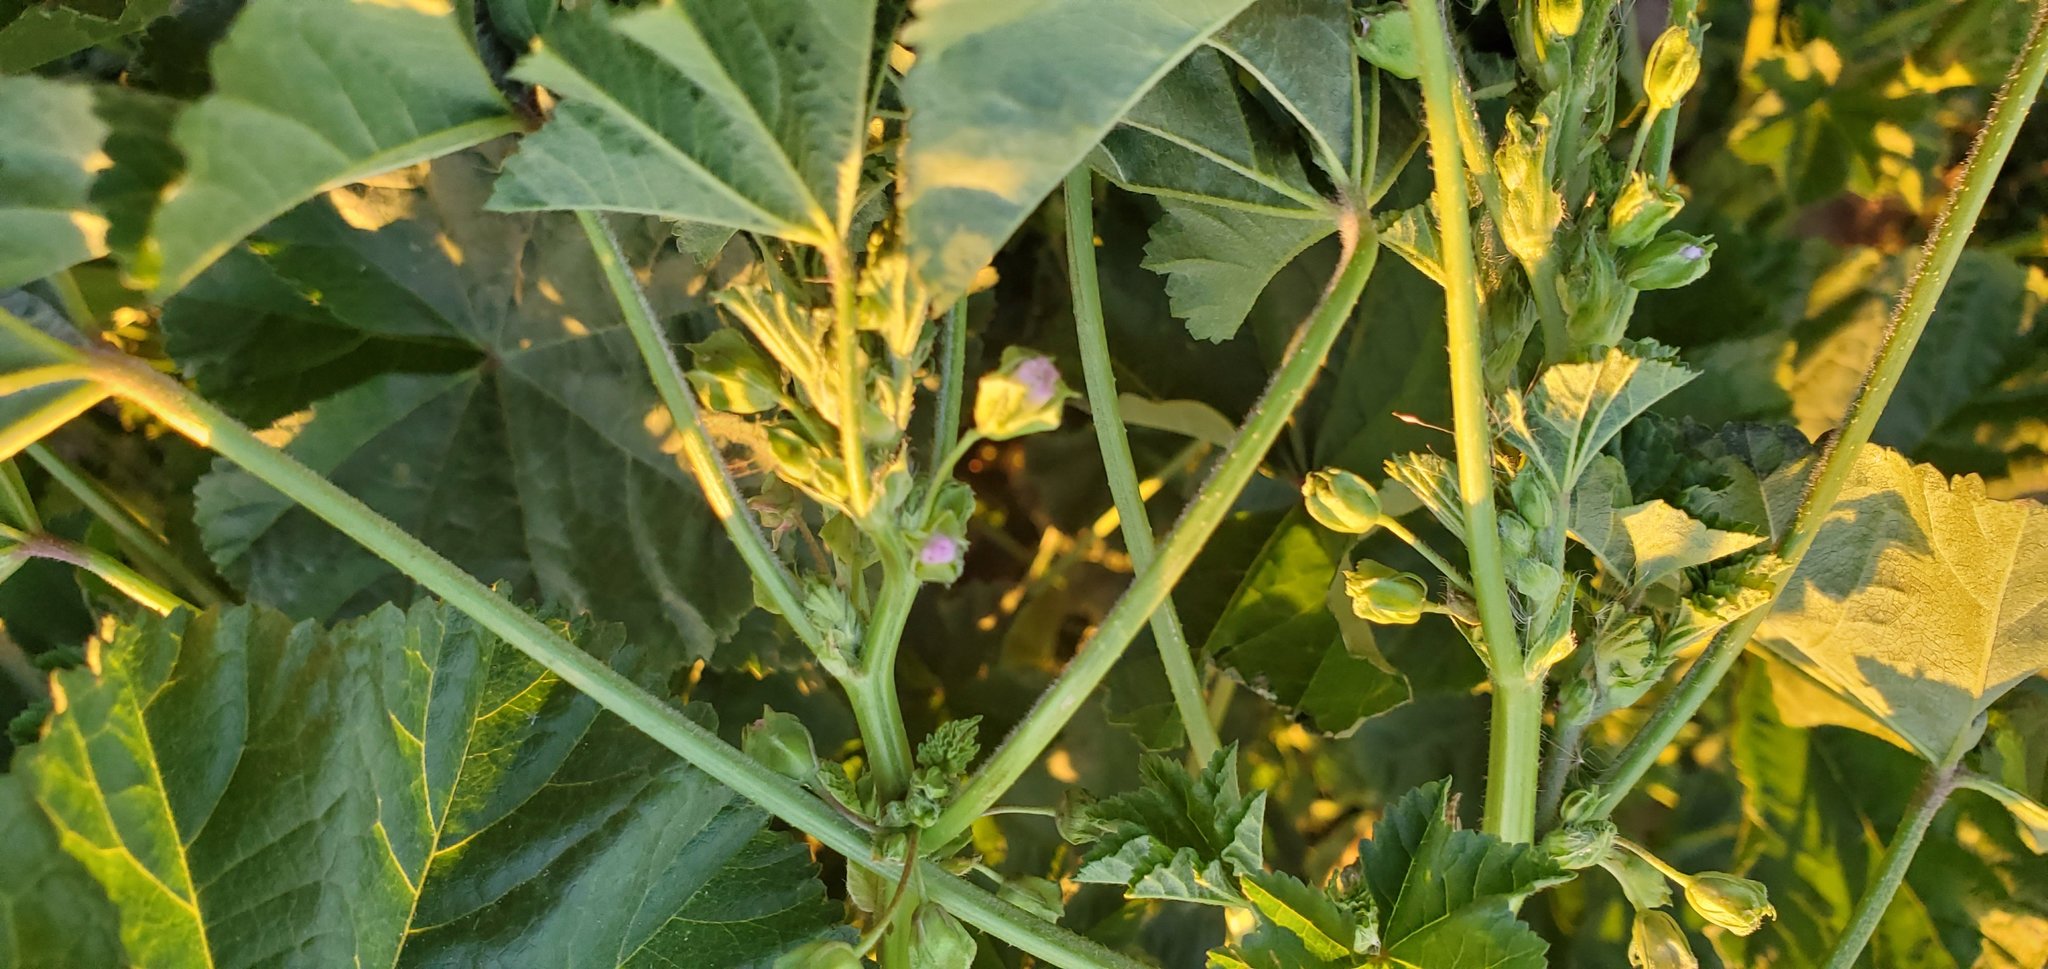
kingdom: Plantae
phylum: Tracheophyta
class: Magnoliopsida
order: Malvales
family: Malvaceae
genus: Malva
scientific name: Malva parviflora
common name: Least mallow
